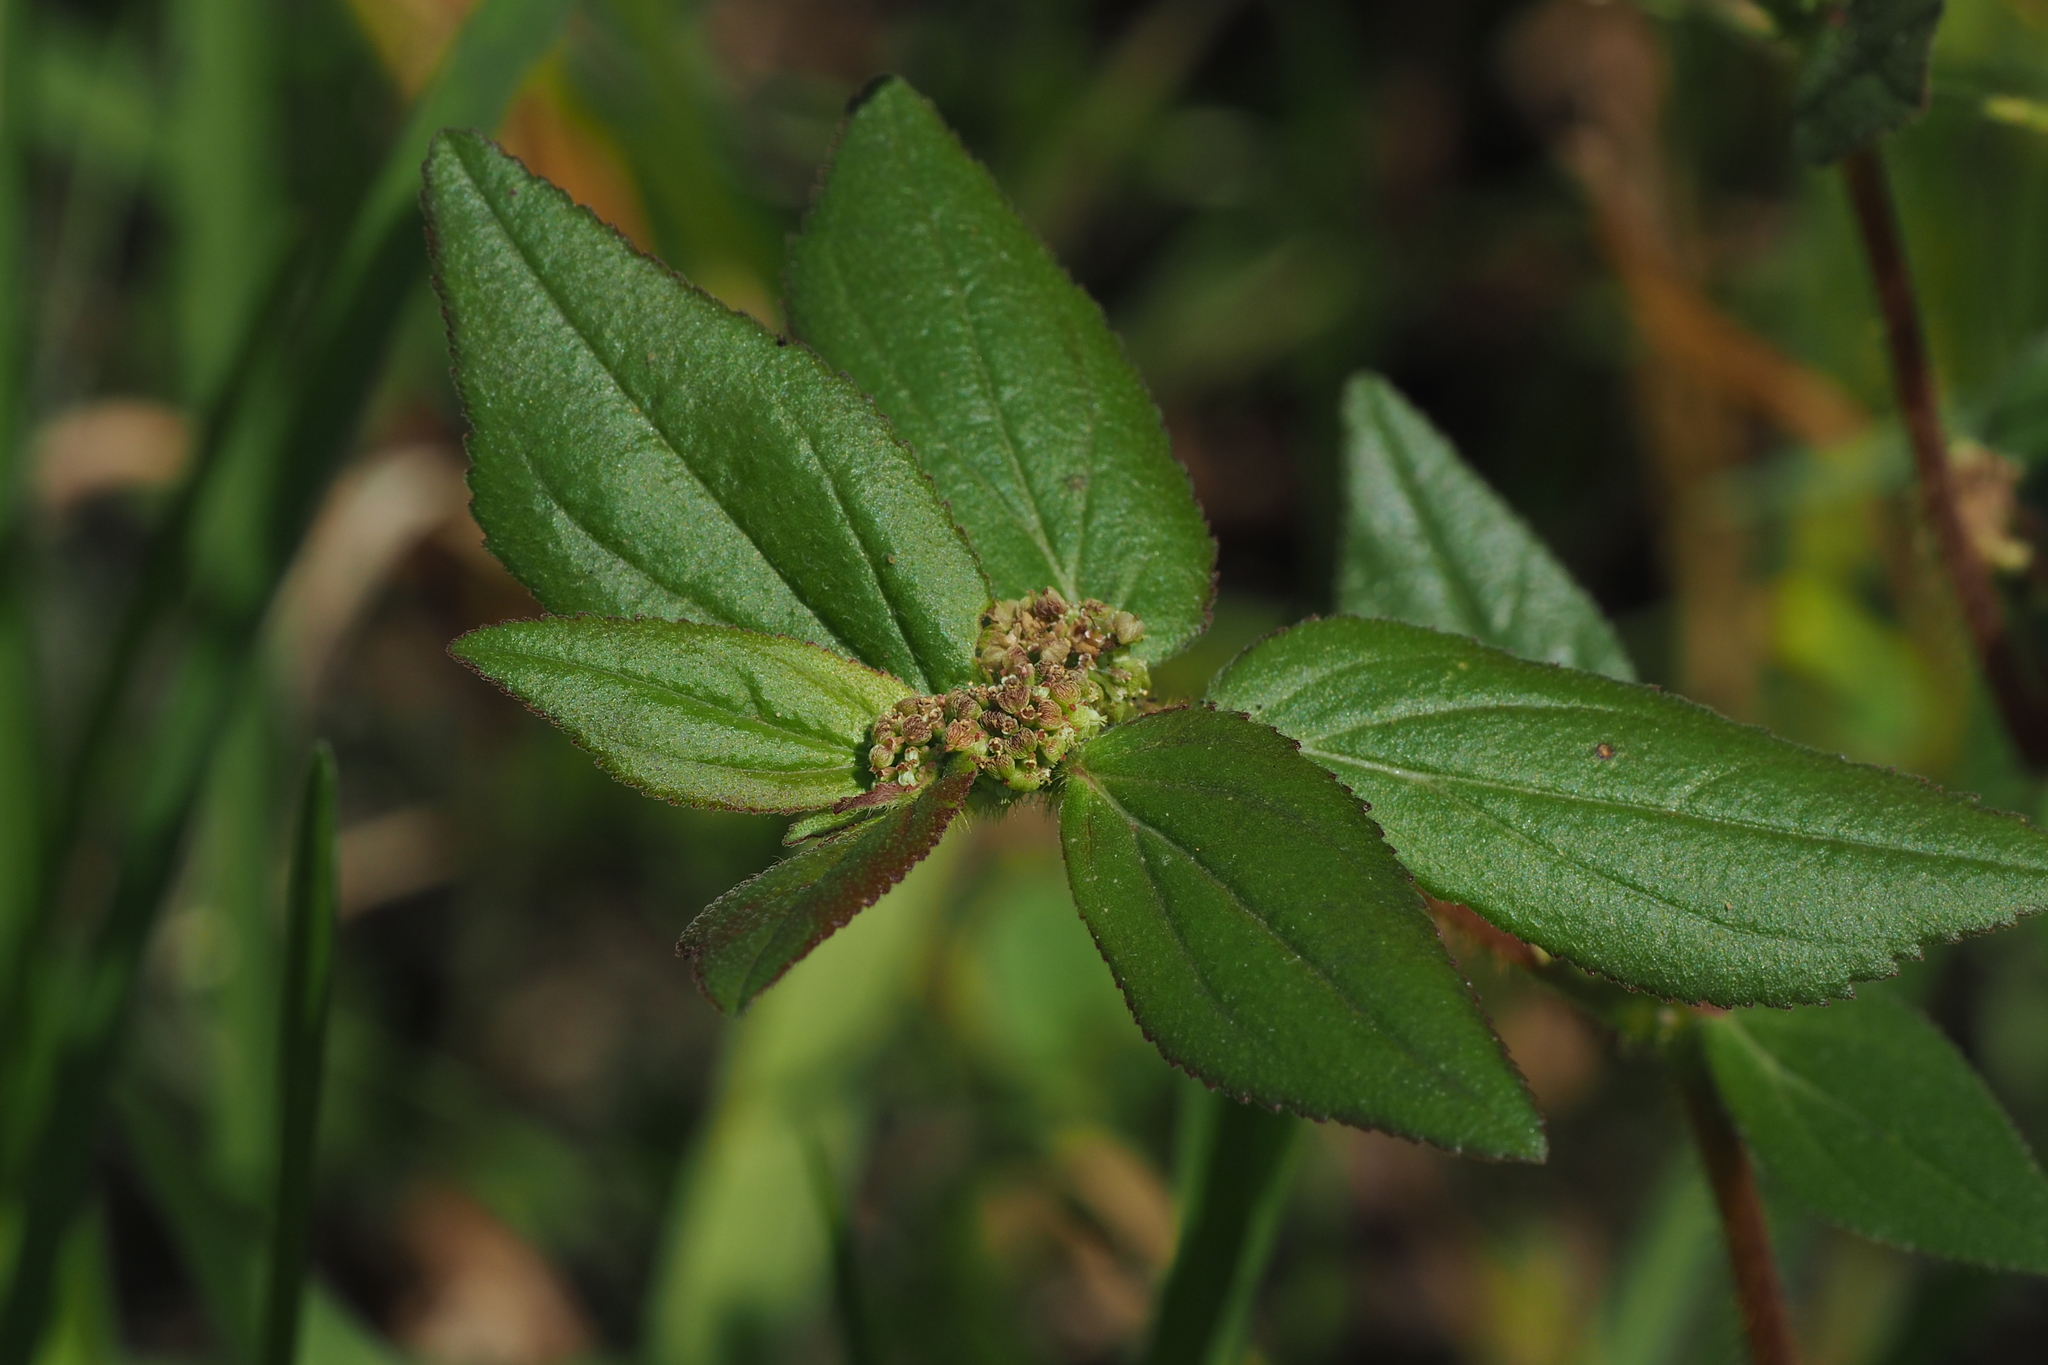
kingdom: Plantae
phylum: Tracheophyta
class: Magnoliopsida
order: Malpighiales
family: Euphorbiaceae
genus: Euphorbia
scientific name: Euphorbia hirta
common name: Pillpod sandmat
